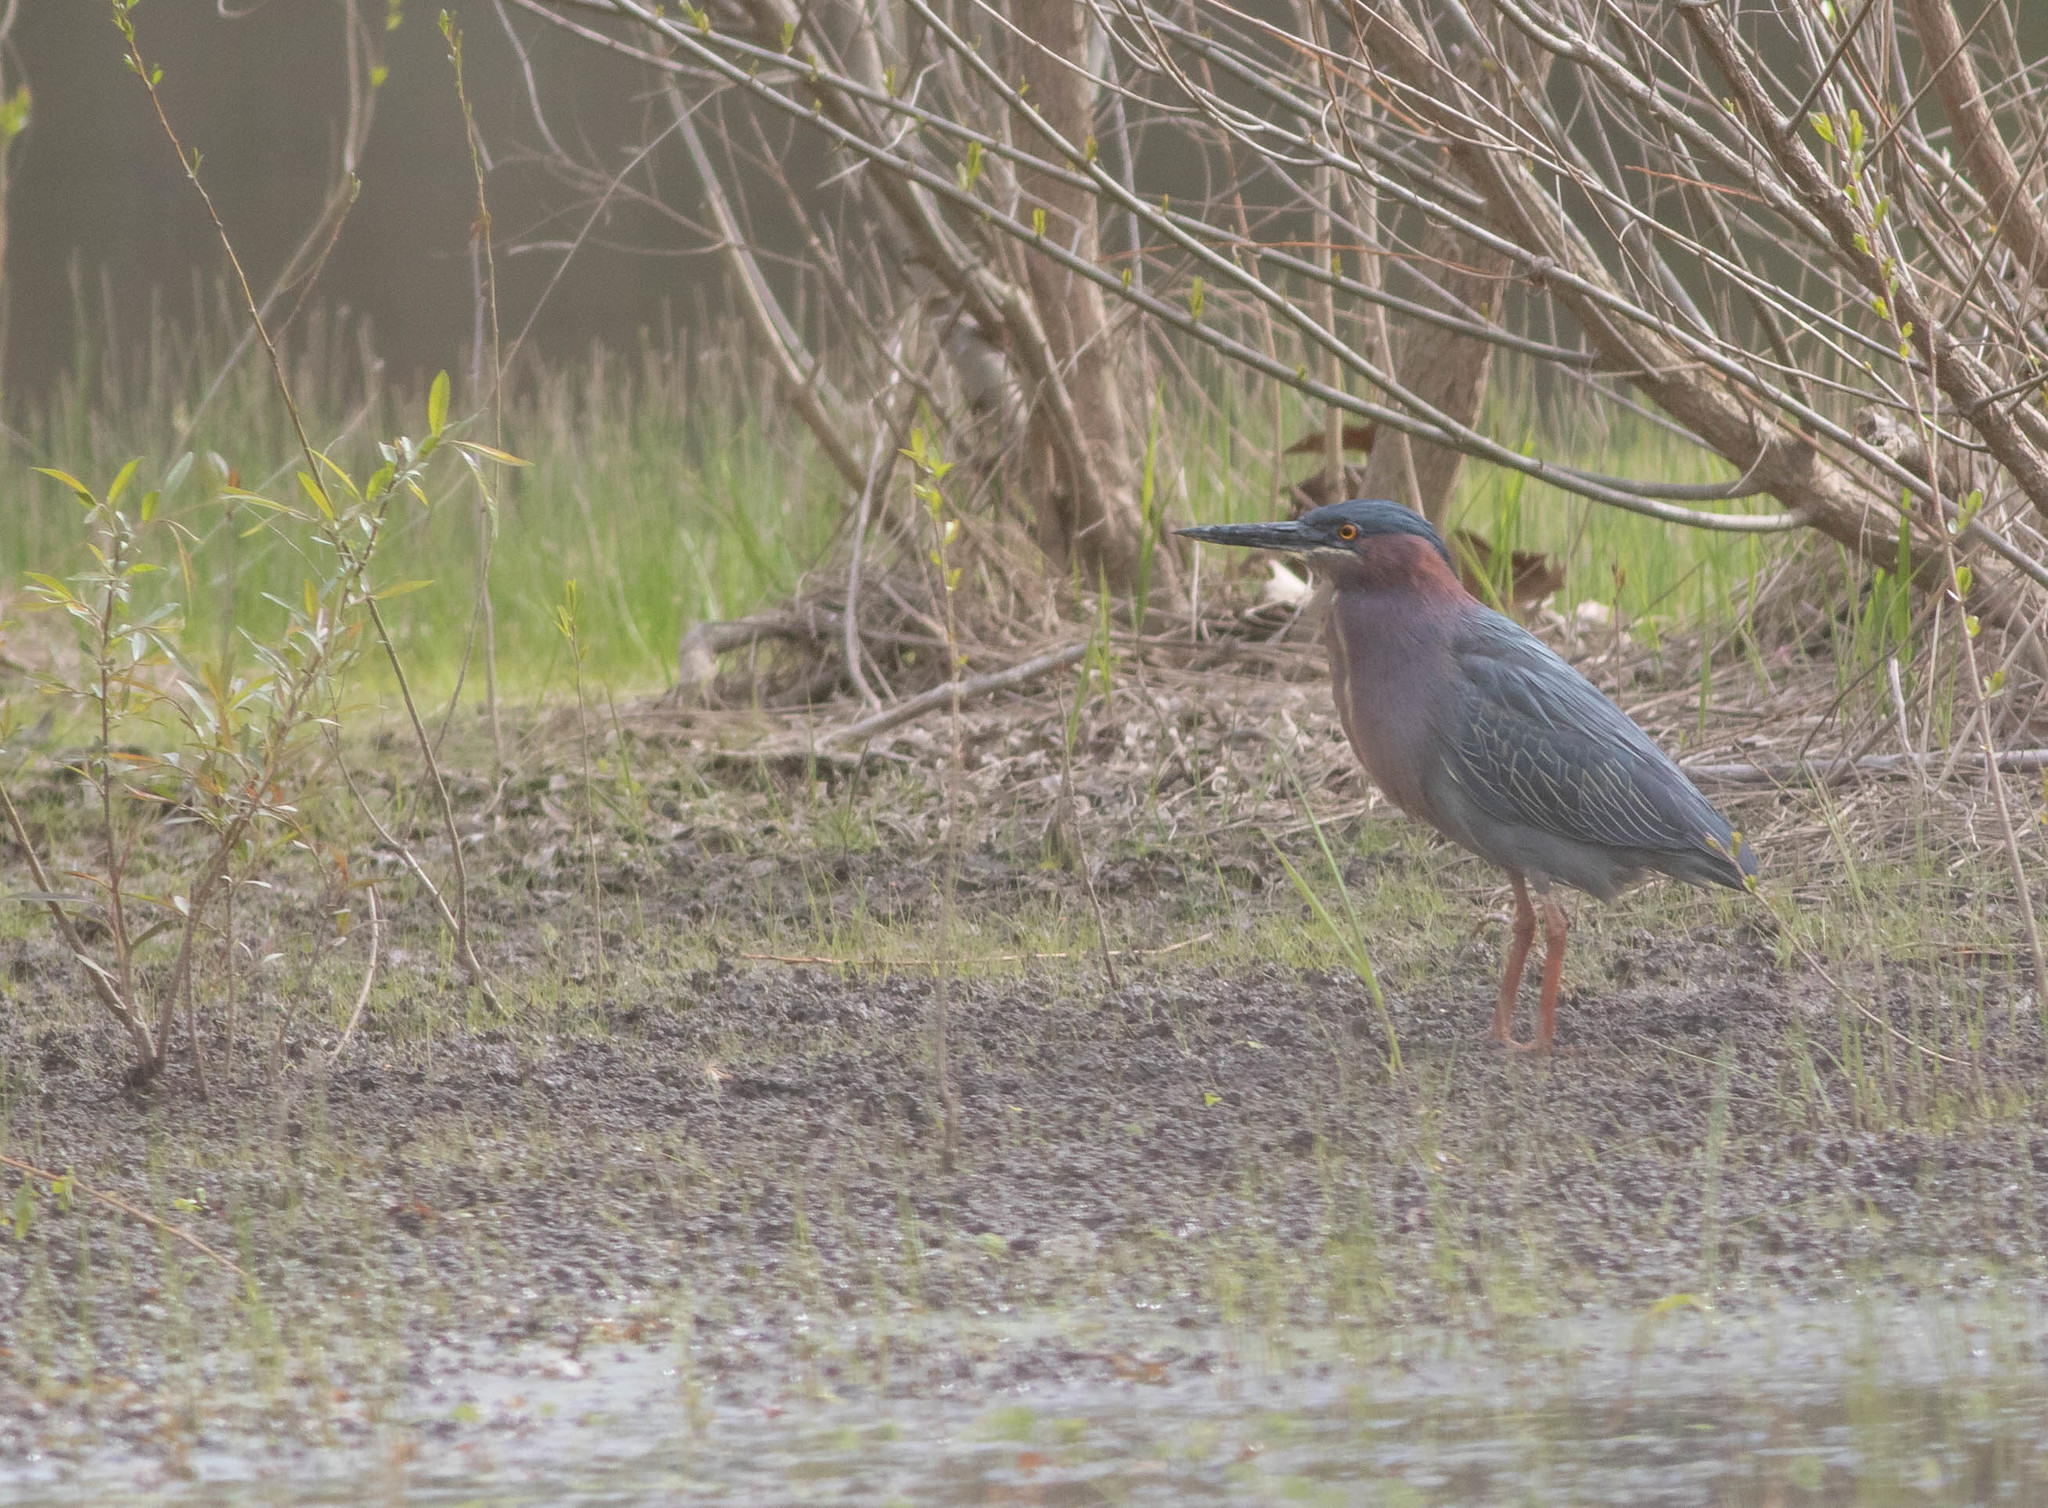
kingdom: Animalia
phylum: Chordata
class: Aves
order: Pelecaniformes
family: Ardeidae
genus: Butorides
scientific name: Butorides virescens
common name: Green heron
